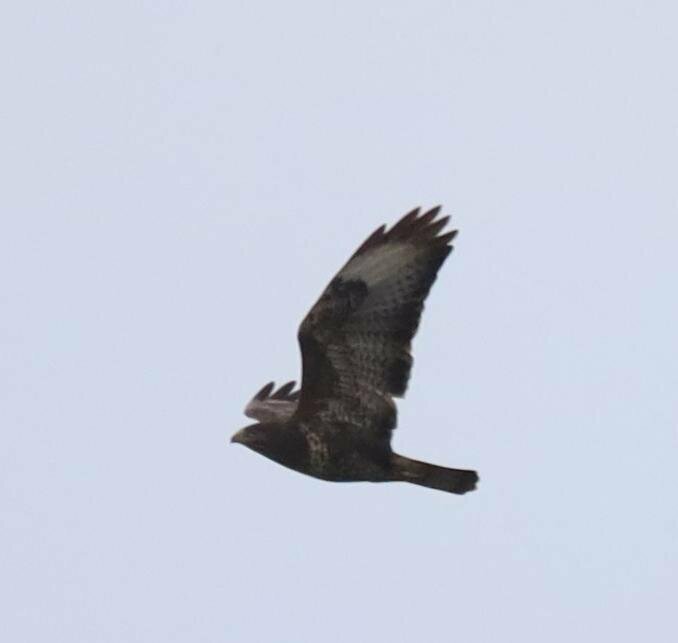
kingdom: Animalia
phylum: Chordata
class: Aves
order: Accipitriformes
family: Accipitridae
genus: Buteo
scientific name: Buteo buteo
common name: Common buzzard
